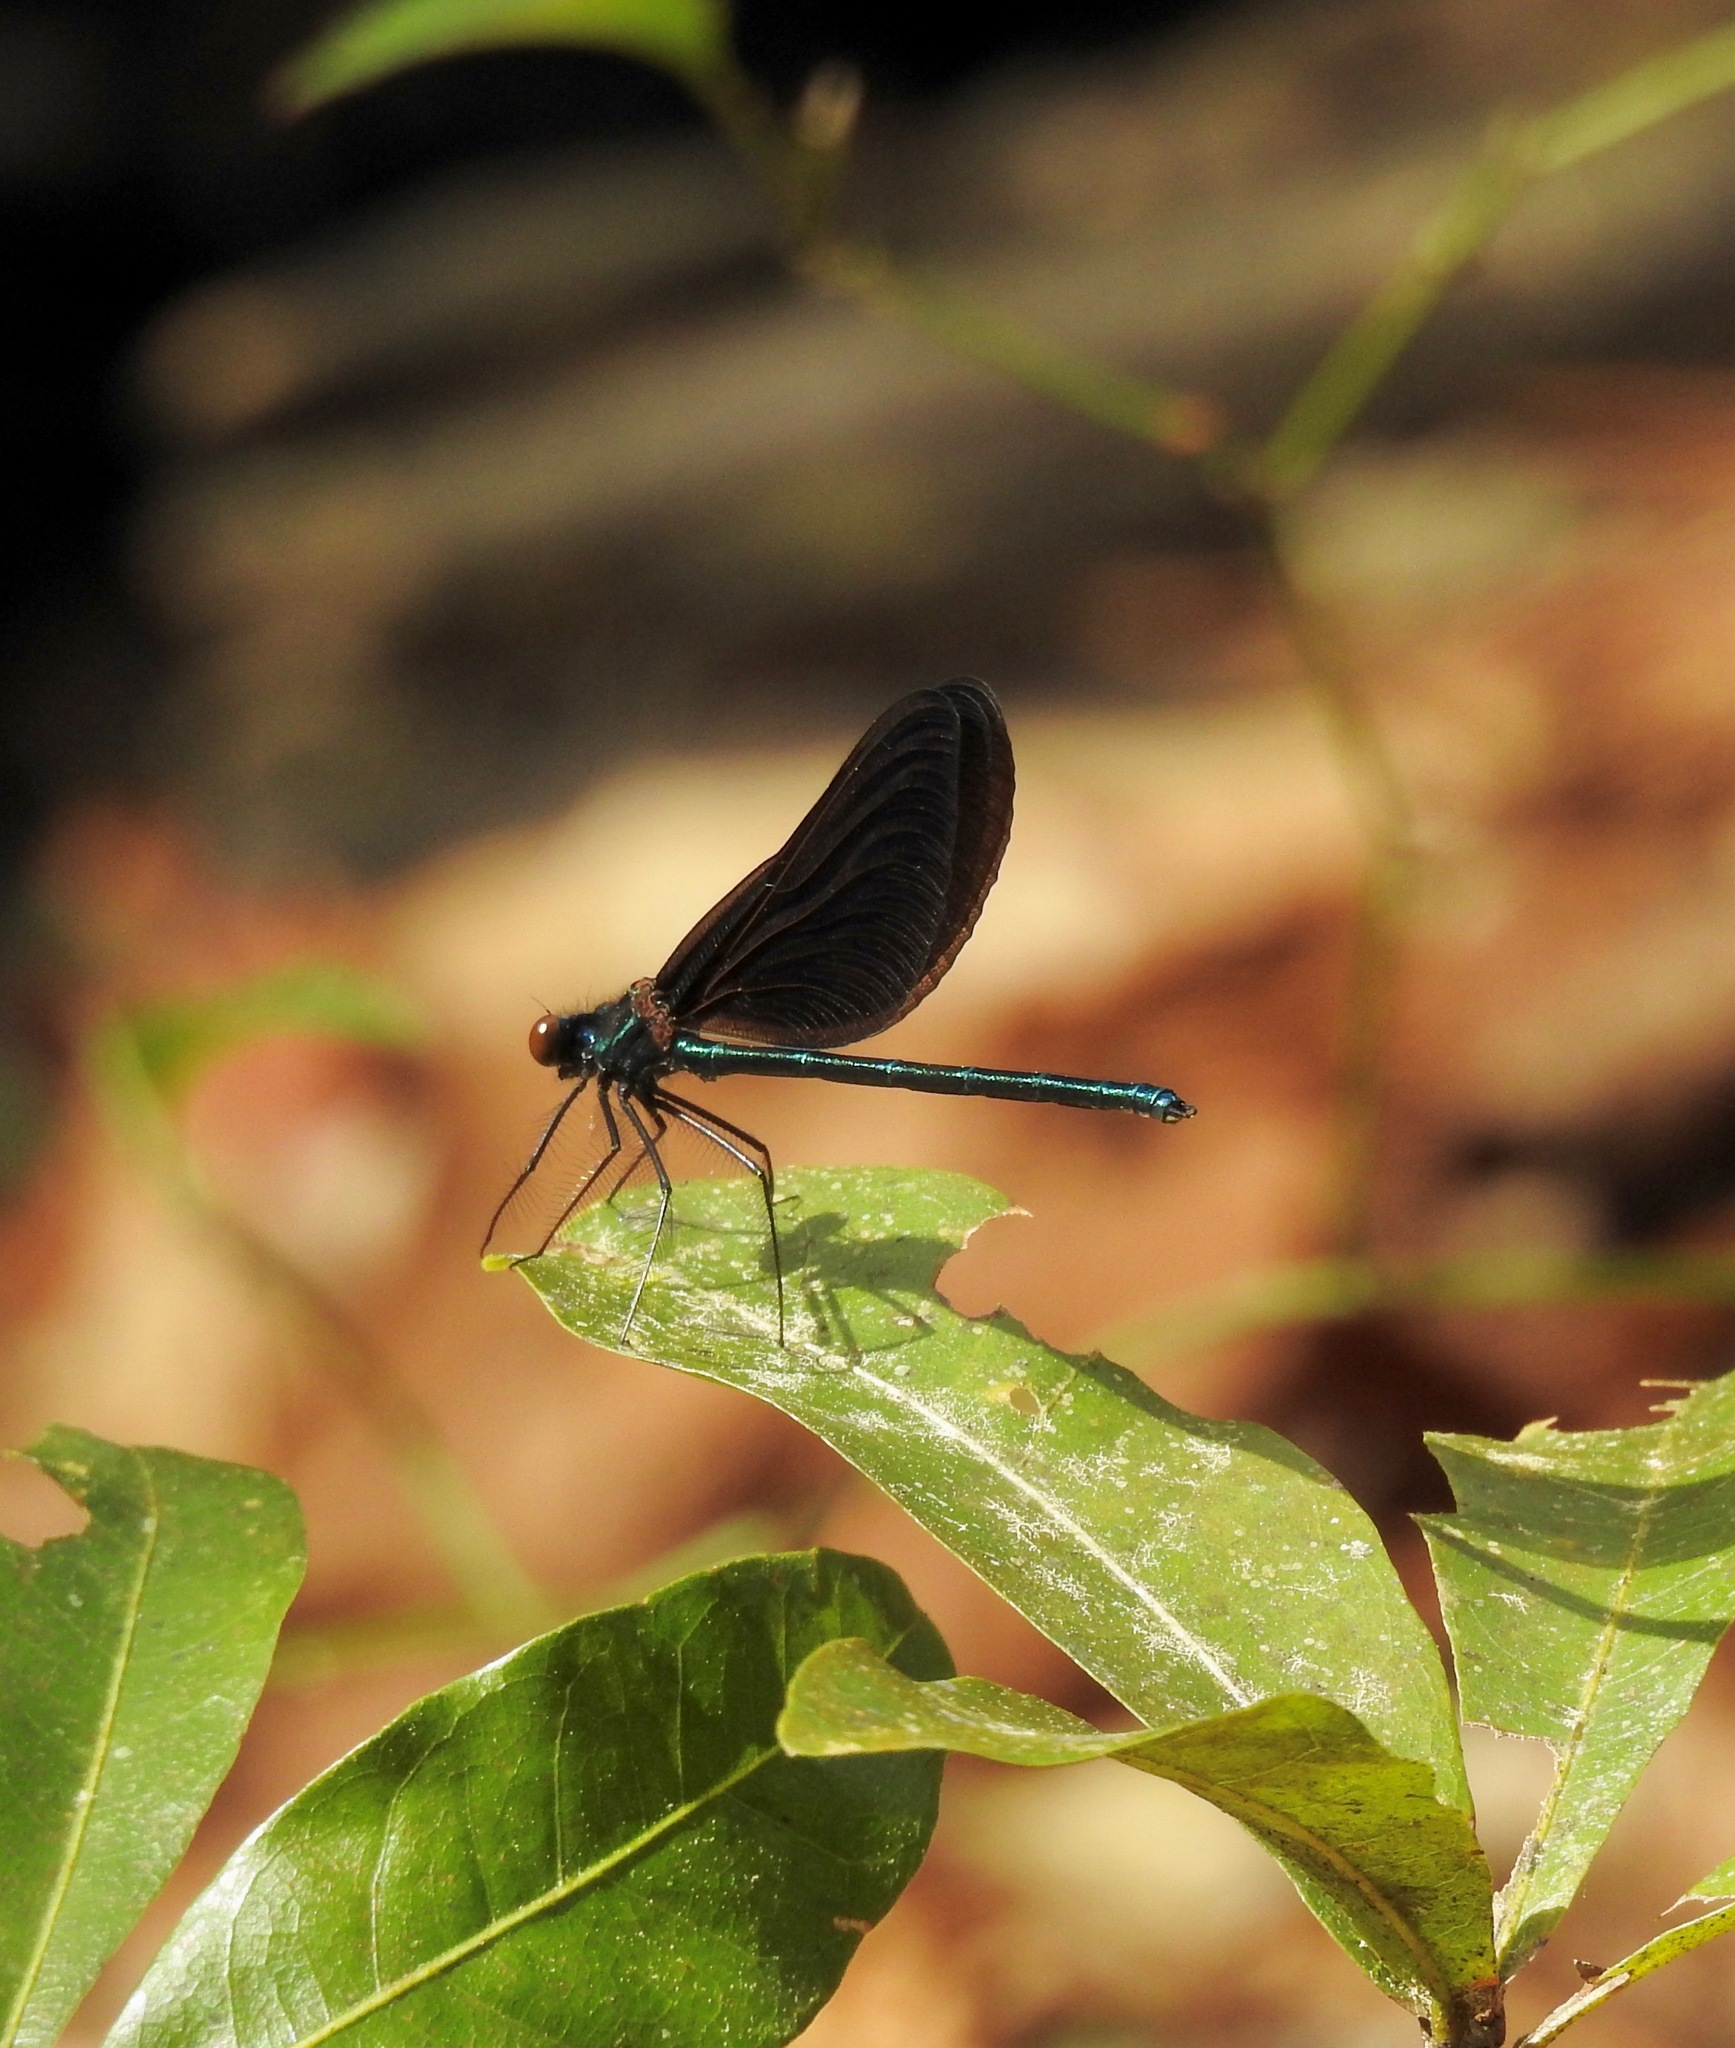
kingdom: Animalia
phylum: Arthropoda
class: Insecta
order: Odonata
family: Calopterygidae
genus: Calopteryx
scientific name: Calopteryx maculata
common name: Ebony jewelwing
